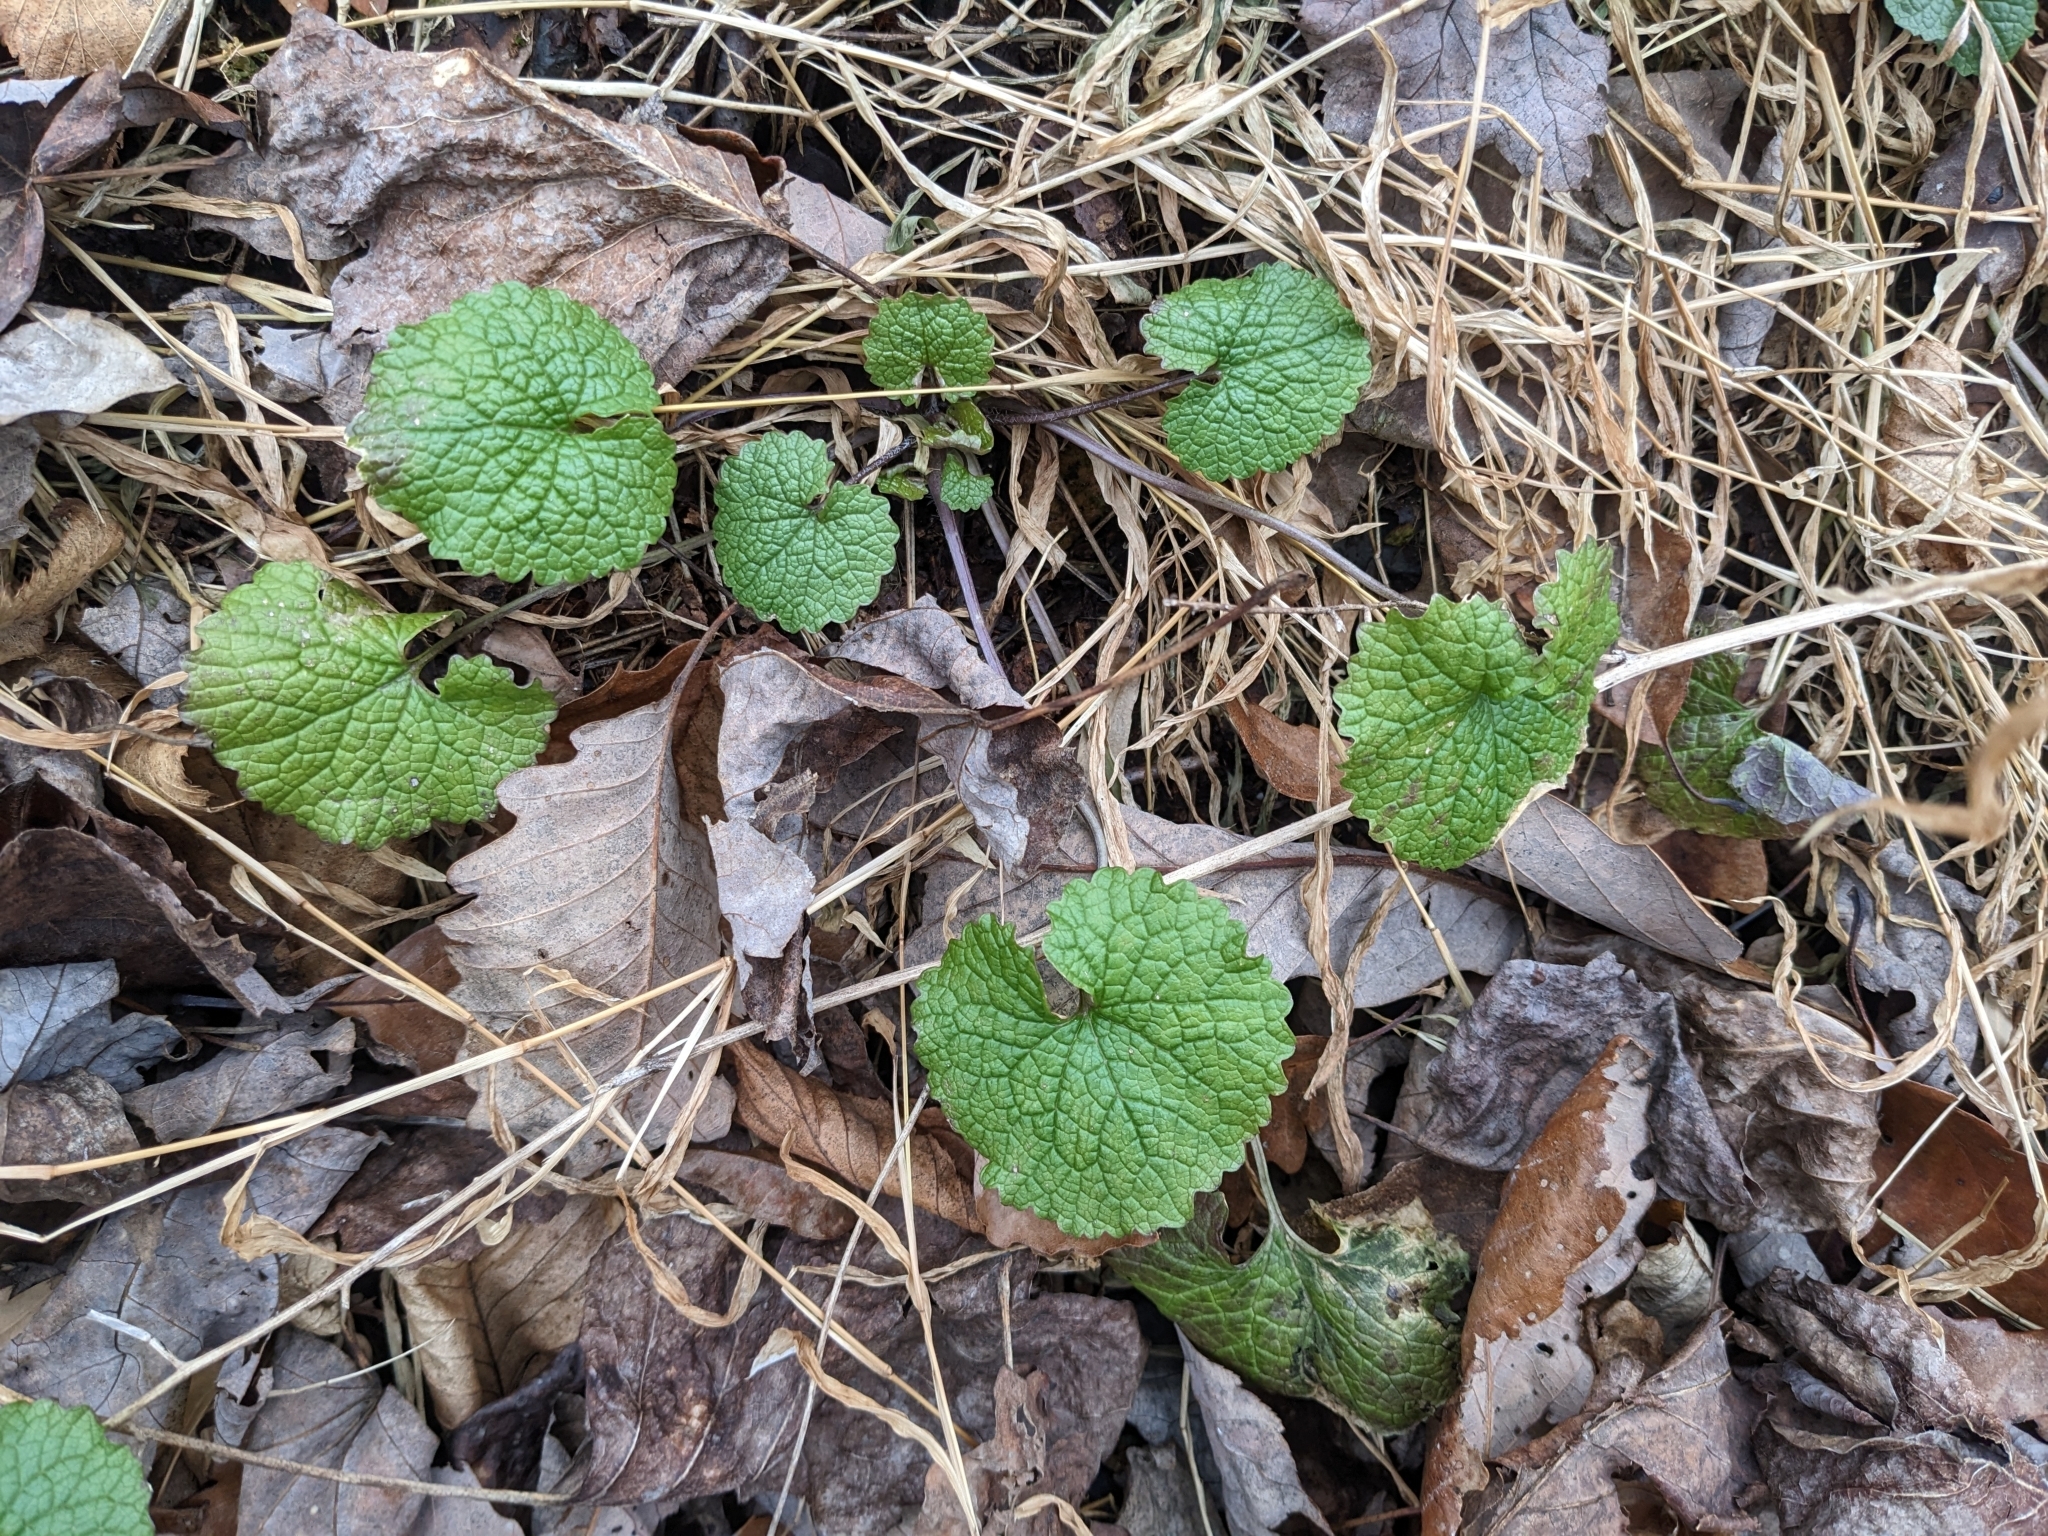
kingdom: Plantae
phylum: Tracheophyta
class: Magnoliopsida
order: Brassicales
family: Brassicaceae
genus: Alliaria
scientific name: Alliaria petiolata
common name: Garlic mustard
